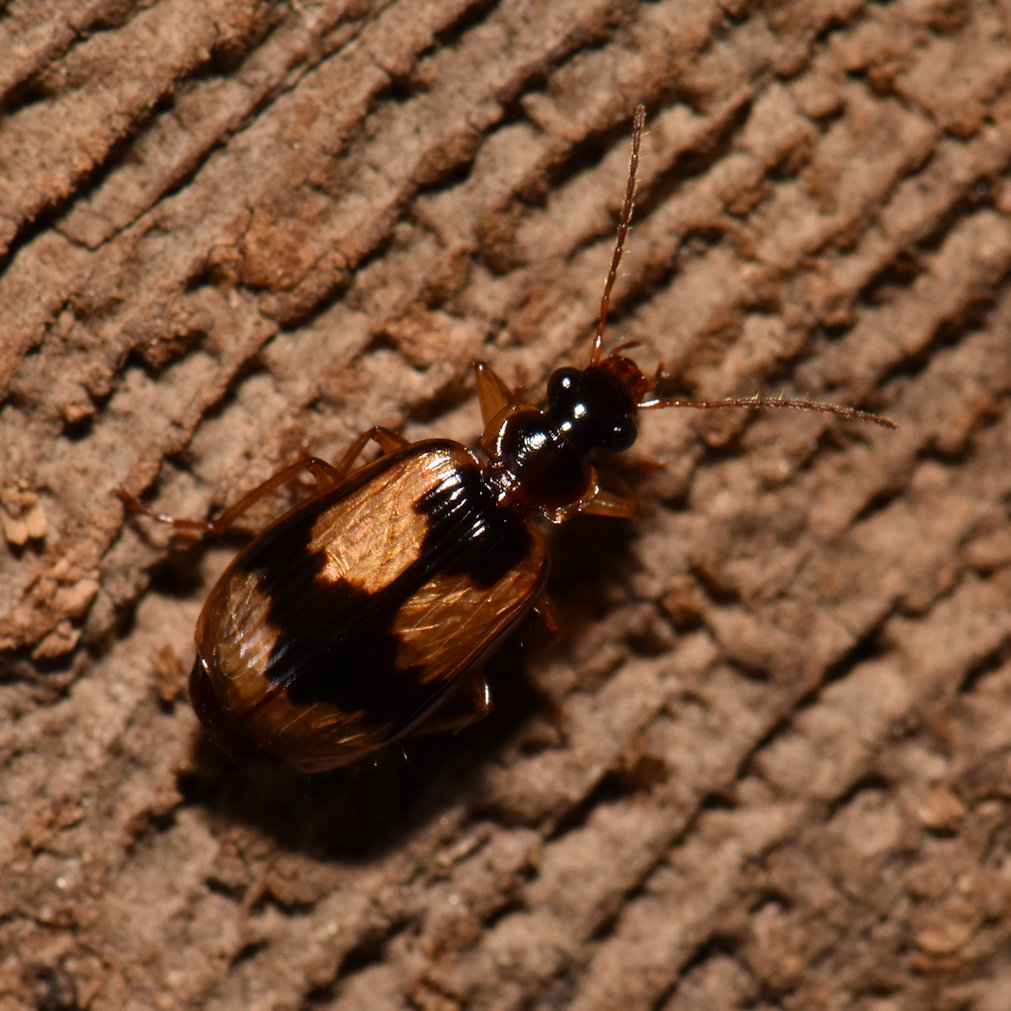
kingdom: Animalia
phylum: Arthropoda
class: Insecta
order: Coleoptera
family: Carabidae
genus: Lebia
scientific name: Lebia fuscata
